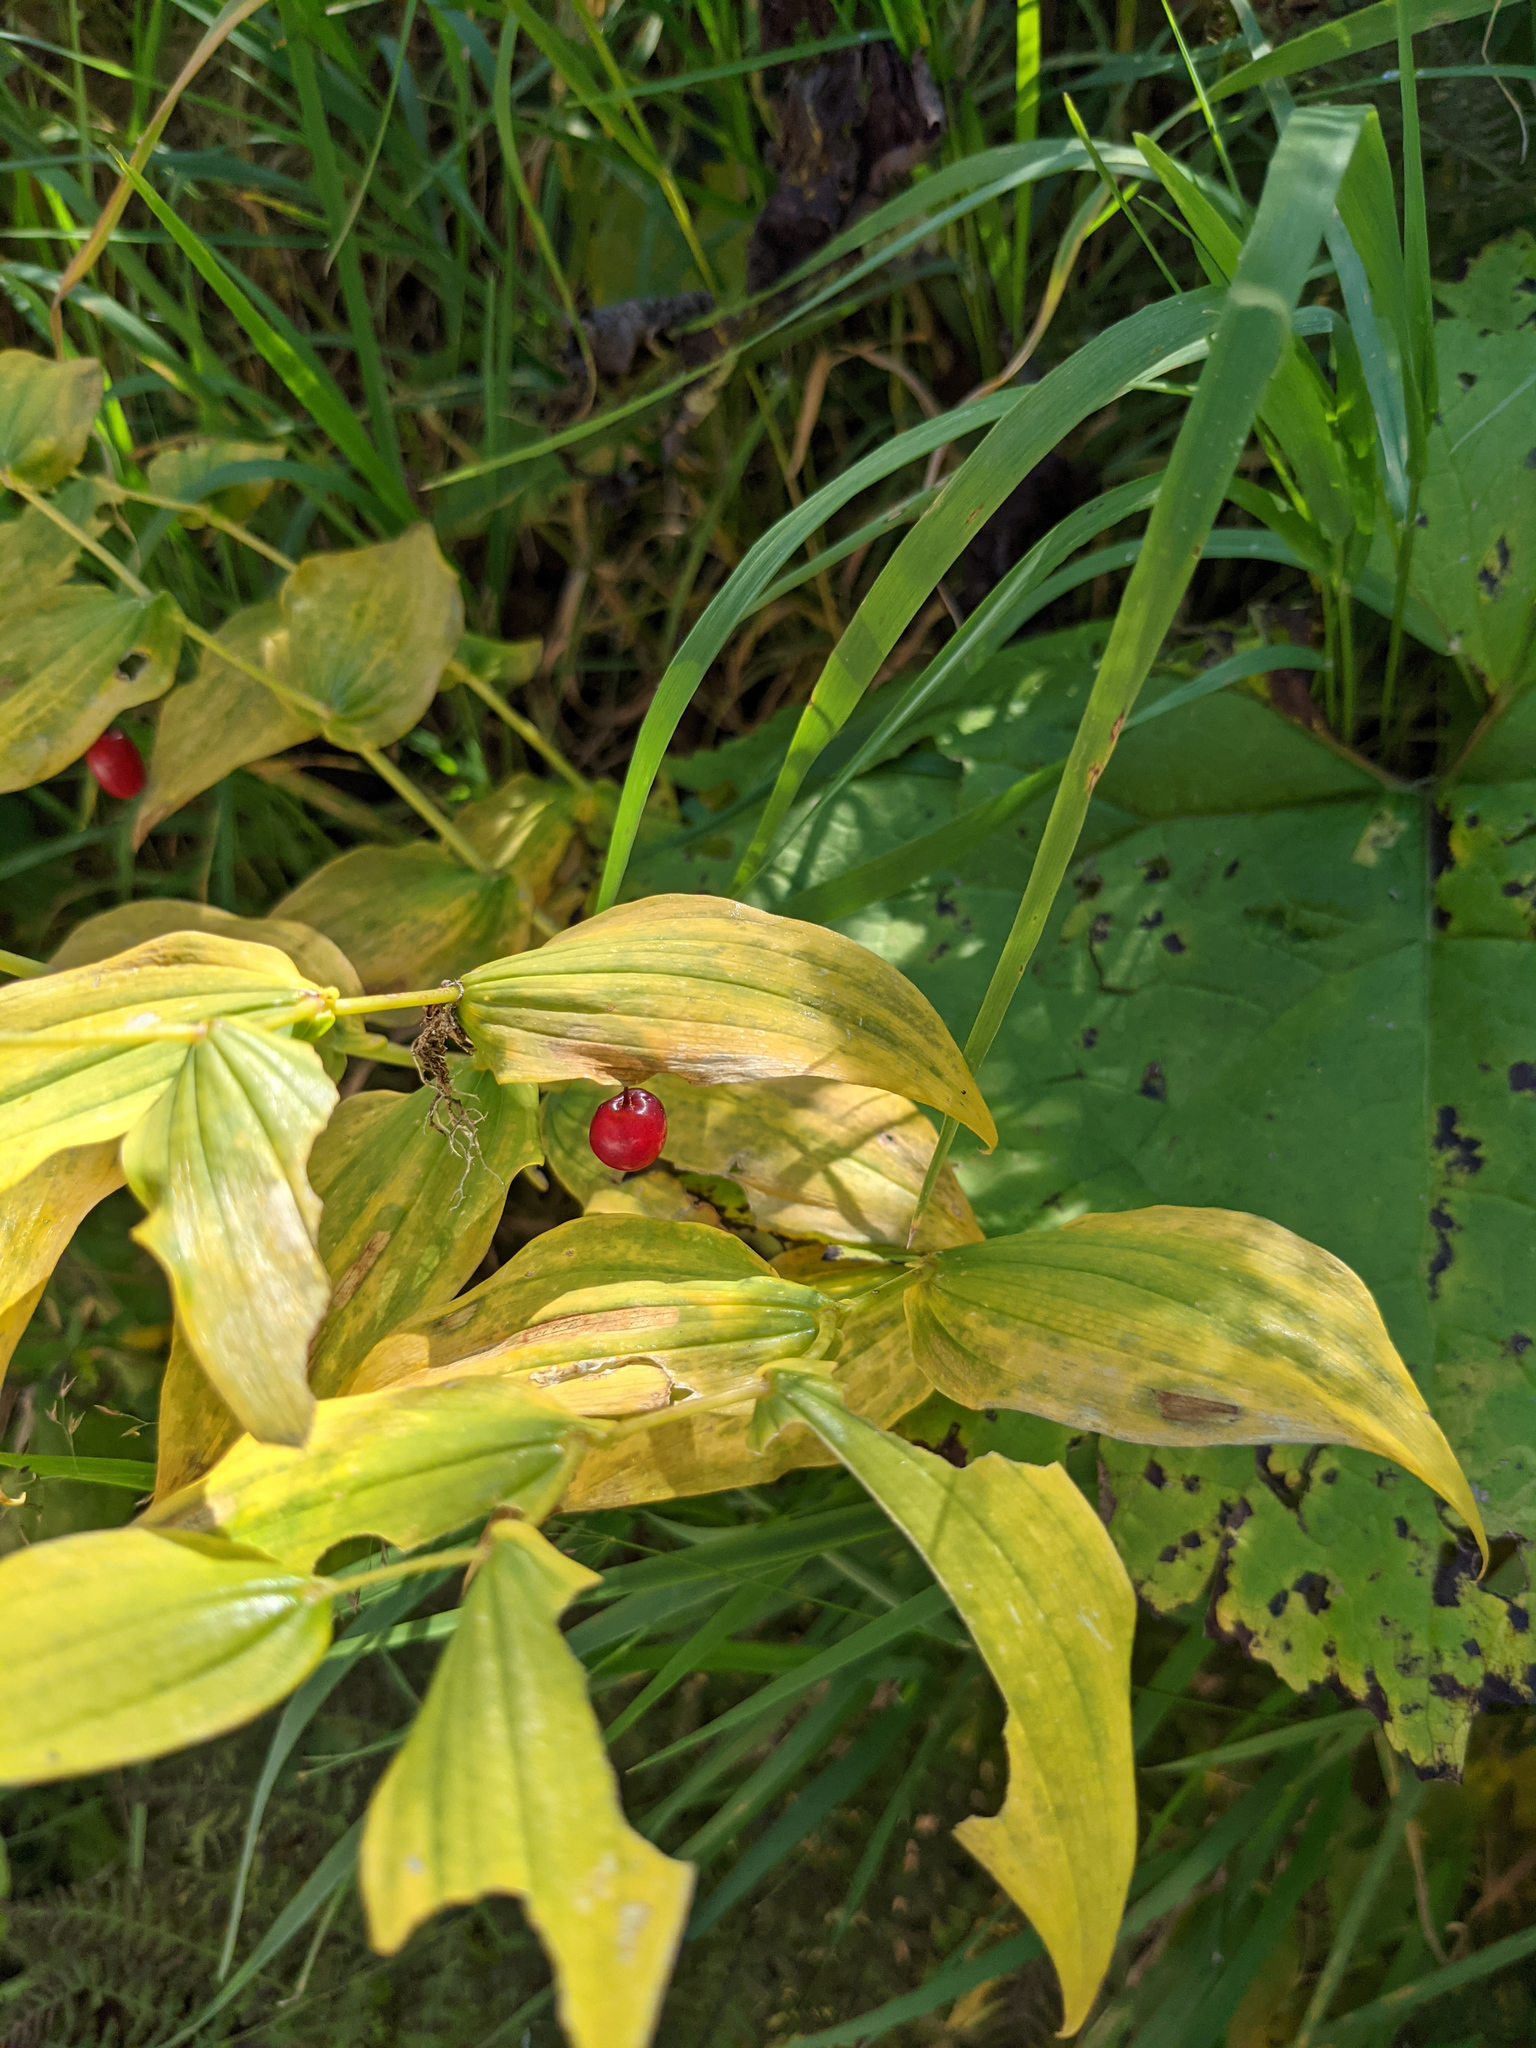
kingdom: Plantae
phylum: Tracheophyta
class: Liliopsida
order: Liliales
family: Liliaceae
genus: Streptopus
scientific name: Streptopus amplexifolius
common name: Clasp twisted stalk
